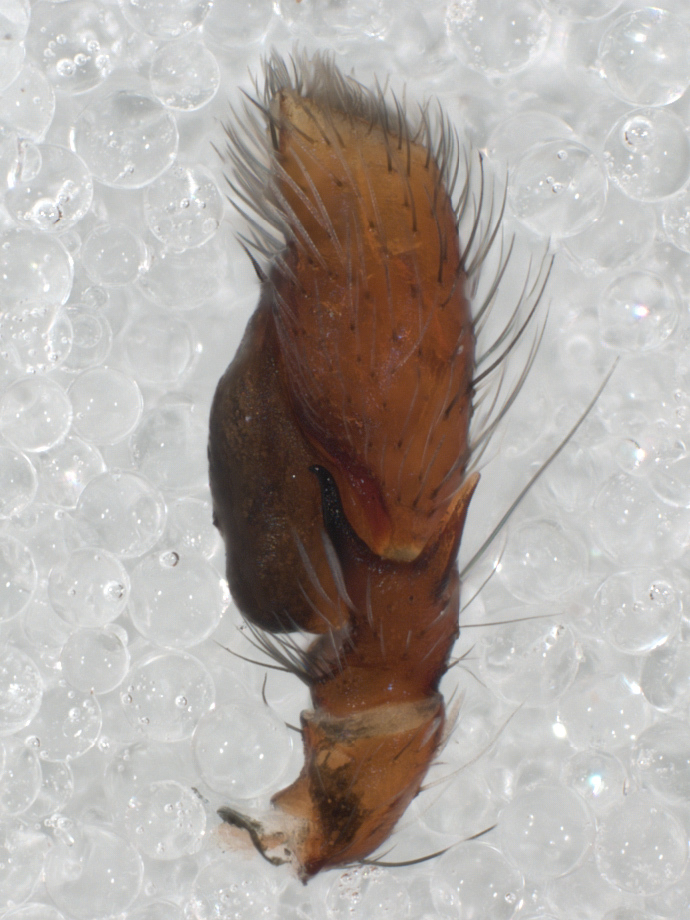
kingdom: Animalia
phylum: Arthropoda
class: Arachnida
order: Araneae
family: Salticidae
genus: Colonus
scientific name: Colonus sylvanus
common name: Jumping spiders
